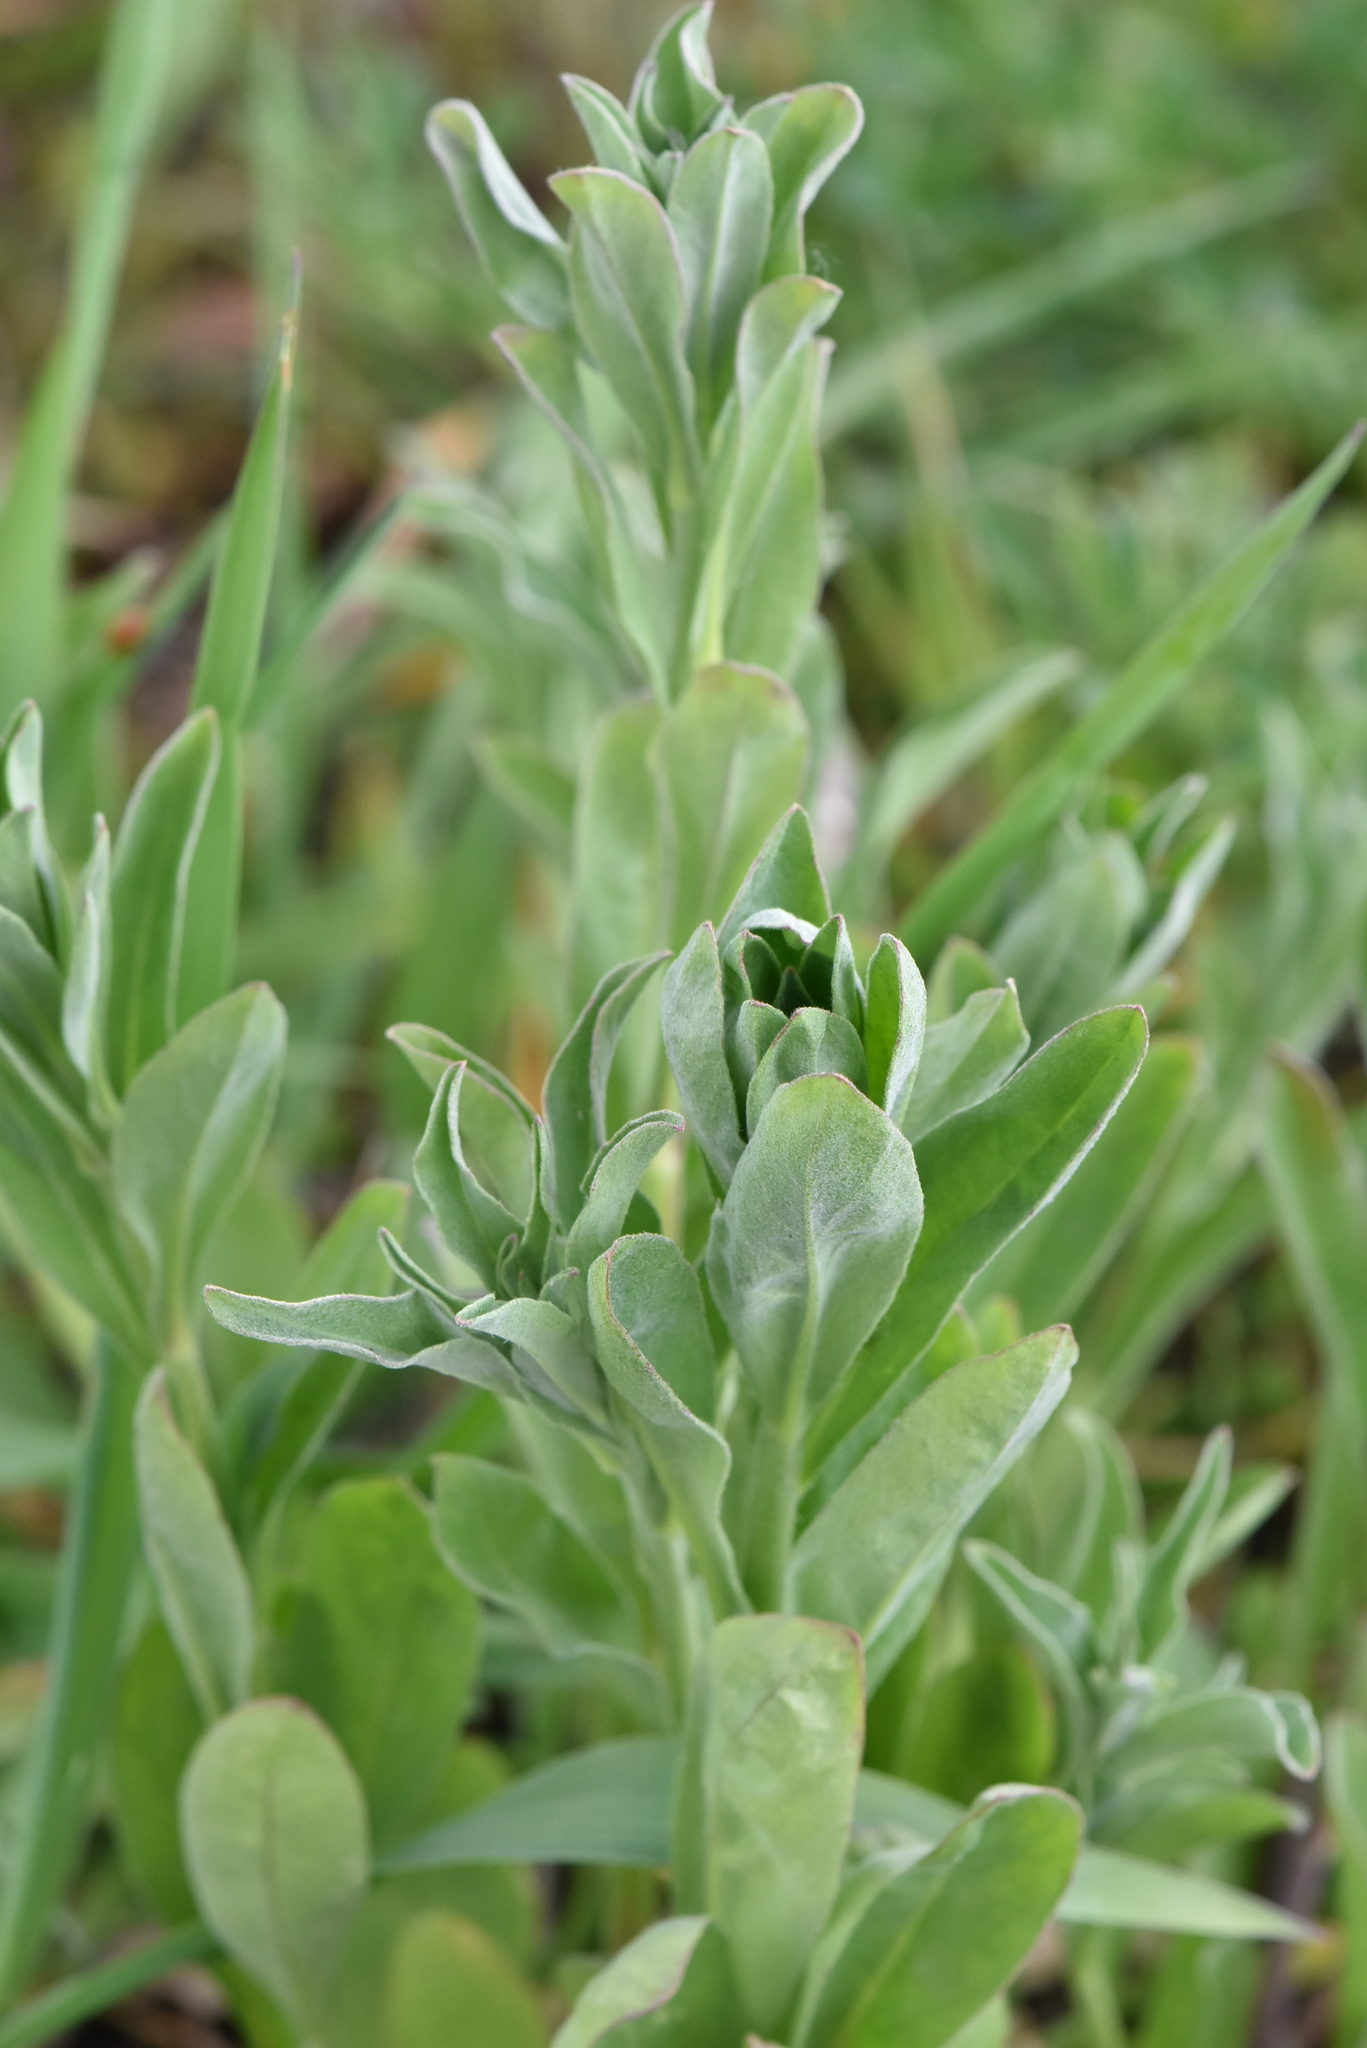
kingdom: Plantae
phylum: Tracheophyta
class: Magnoliopsida
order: Brassicales
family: Brassicaceae
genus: Berteroa
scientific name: Berteroa incana
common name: Hoary alison
